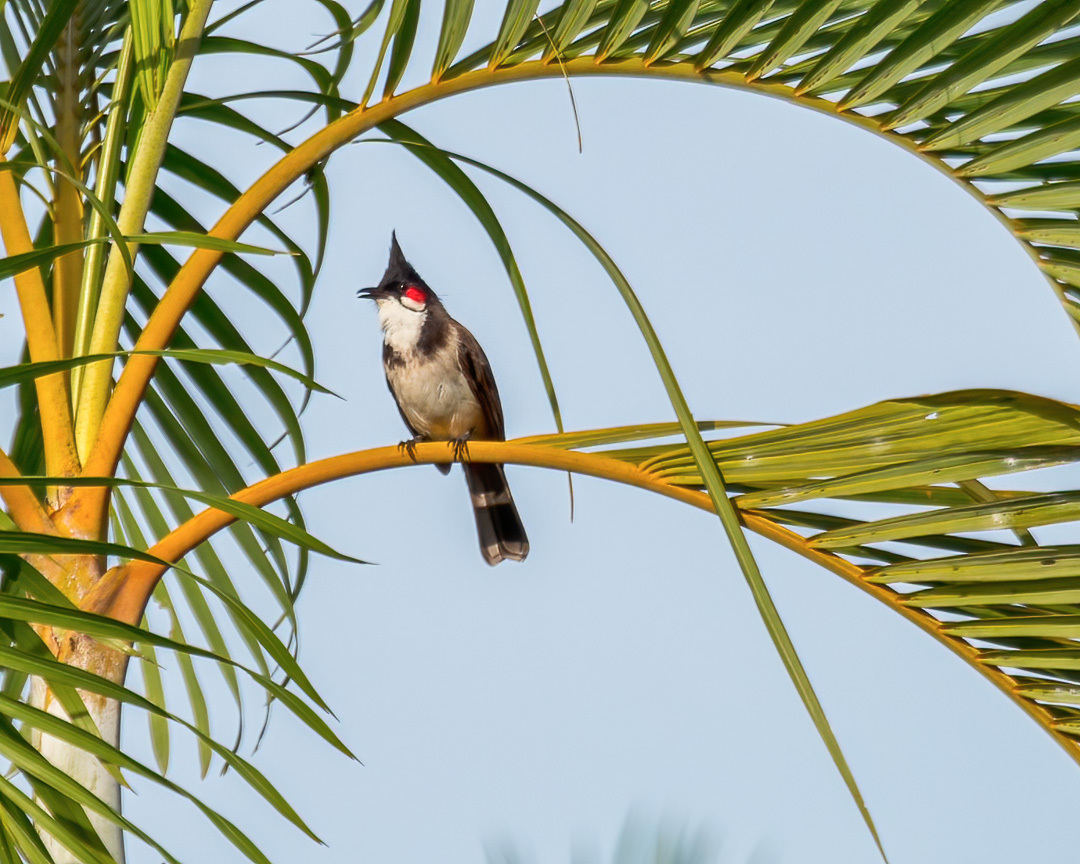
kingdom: Animalia
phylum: Chordata
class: Aves
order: Passeriformes
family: Pycnonotidae
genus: Pycnonotus
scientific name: Pycnonotus jocosus
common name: Red-whiskered bulbul
